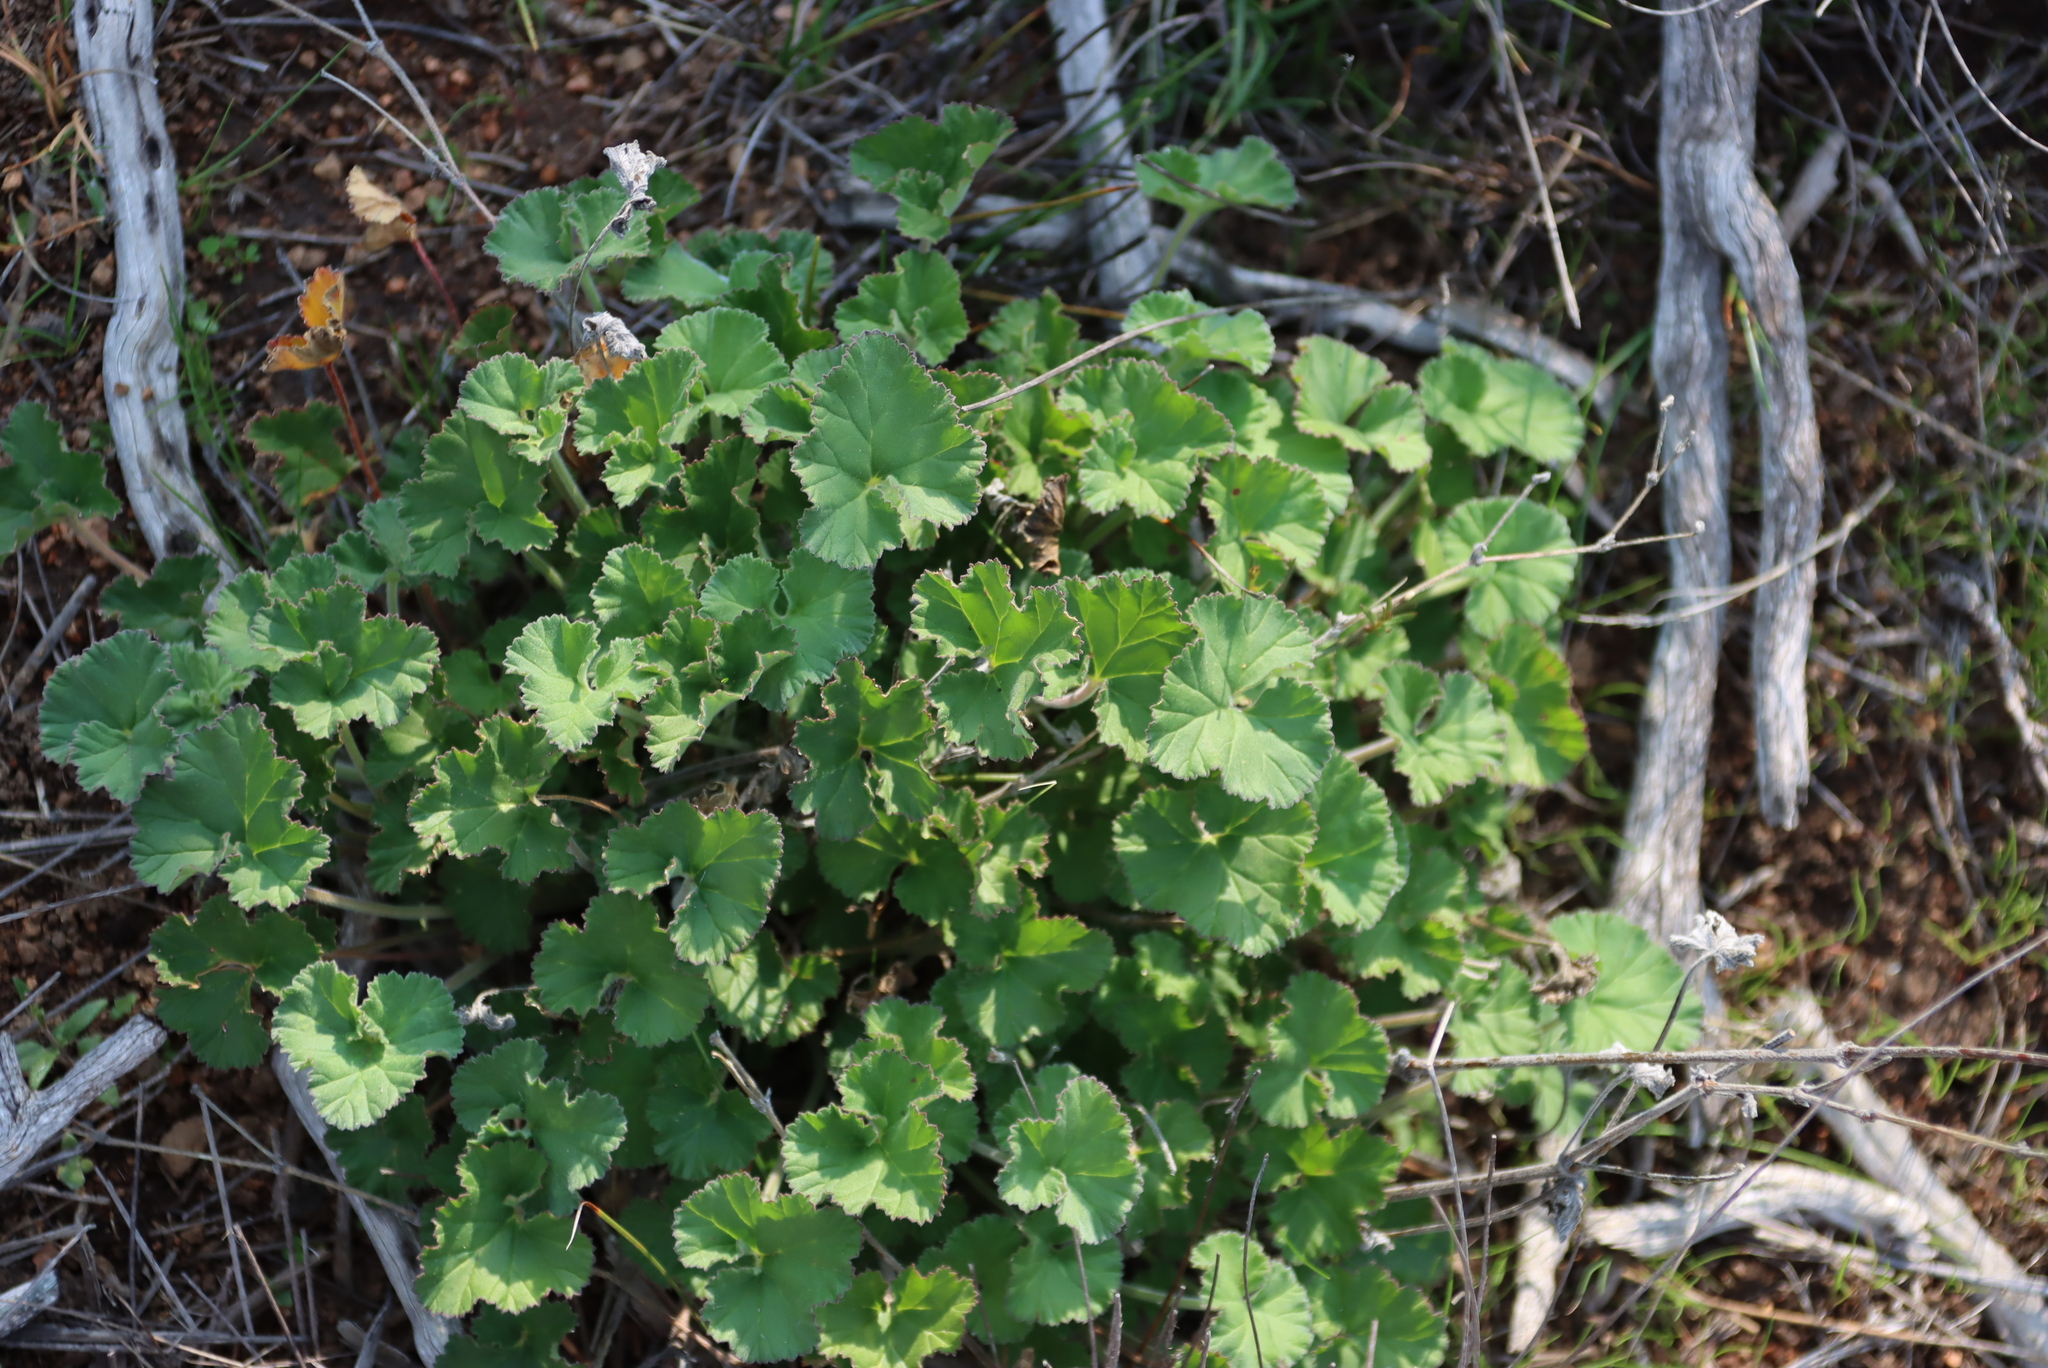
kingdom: Plantae
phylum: Tracheophyta
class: Magnoliopsida
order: Geraniales
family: Geraniaceae
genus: Pelargonium
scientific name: Pelargonium echinatum
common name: Cactus geranium
